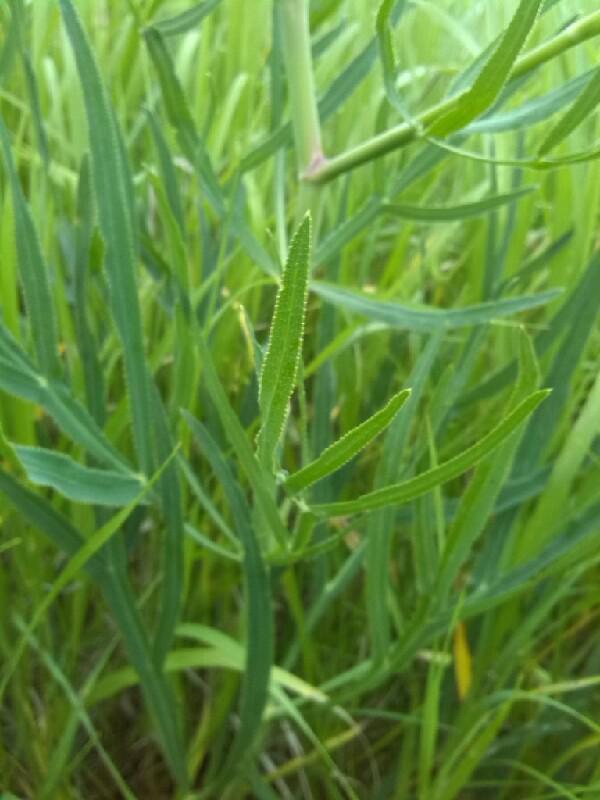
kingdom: Plantae
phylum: Tracheophyta
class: Magnoliopsida
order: Apiales
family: Apiaceae
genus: Falcaria
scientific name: Falcaria vulgaris
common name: Longleaf
